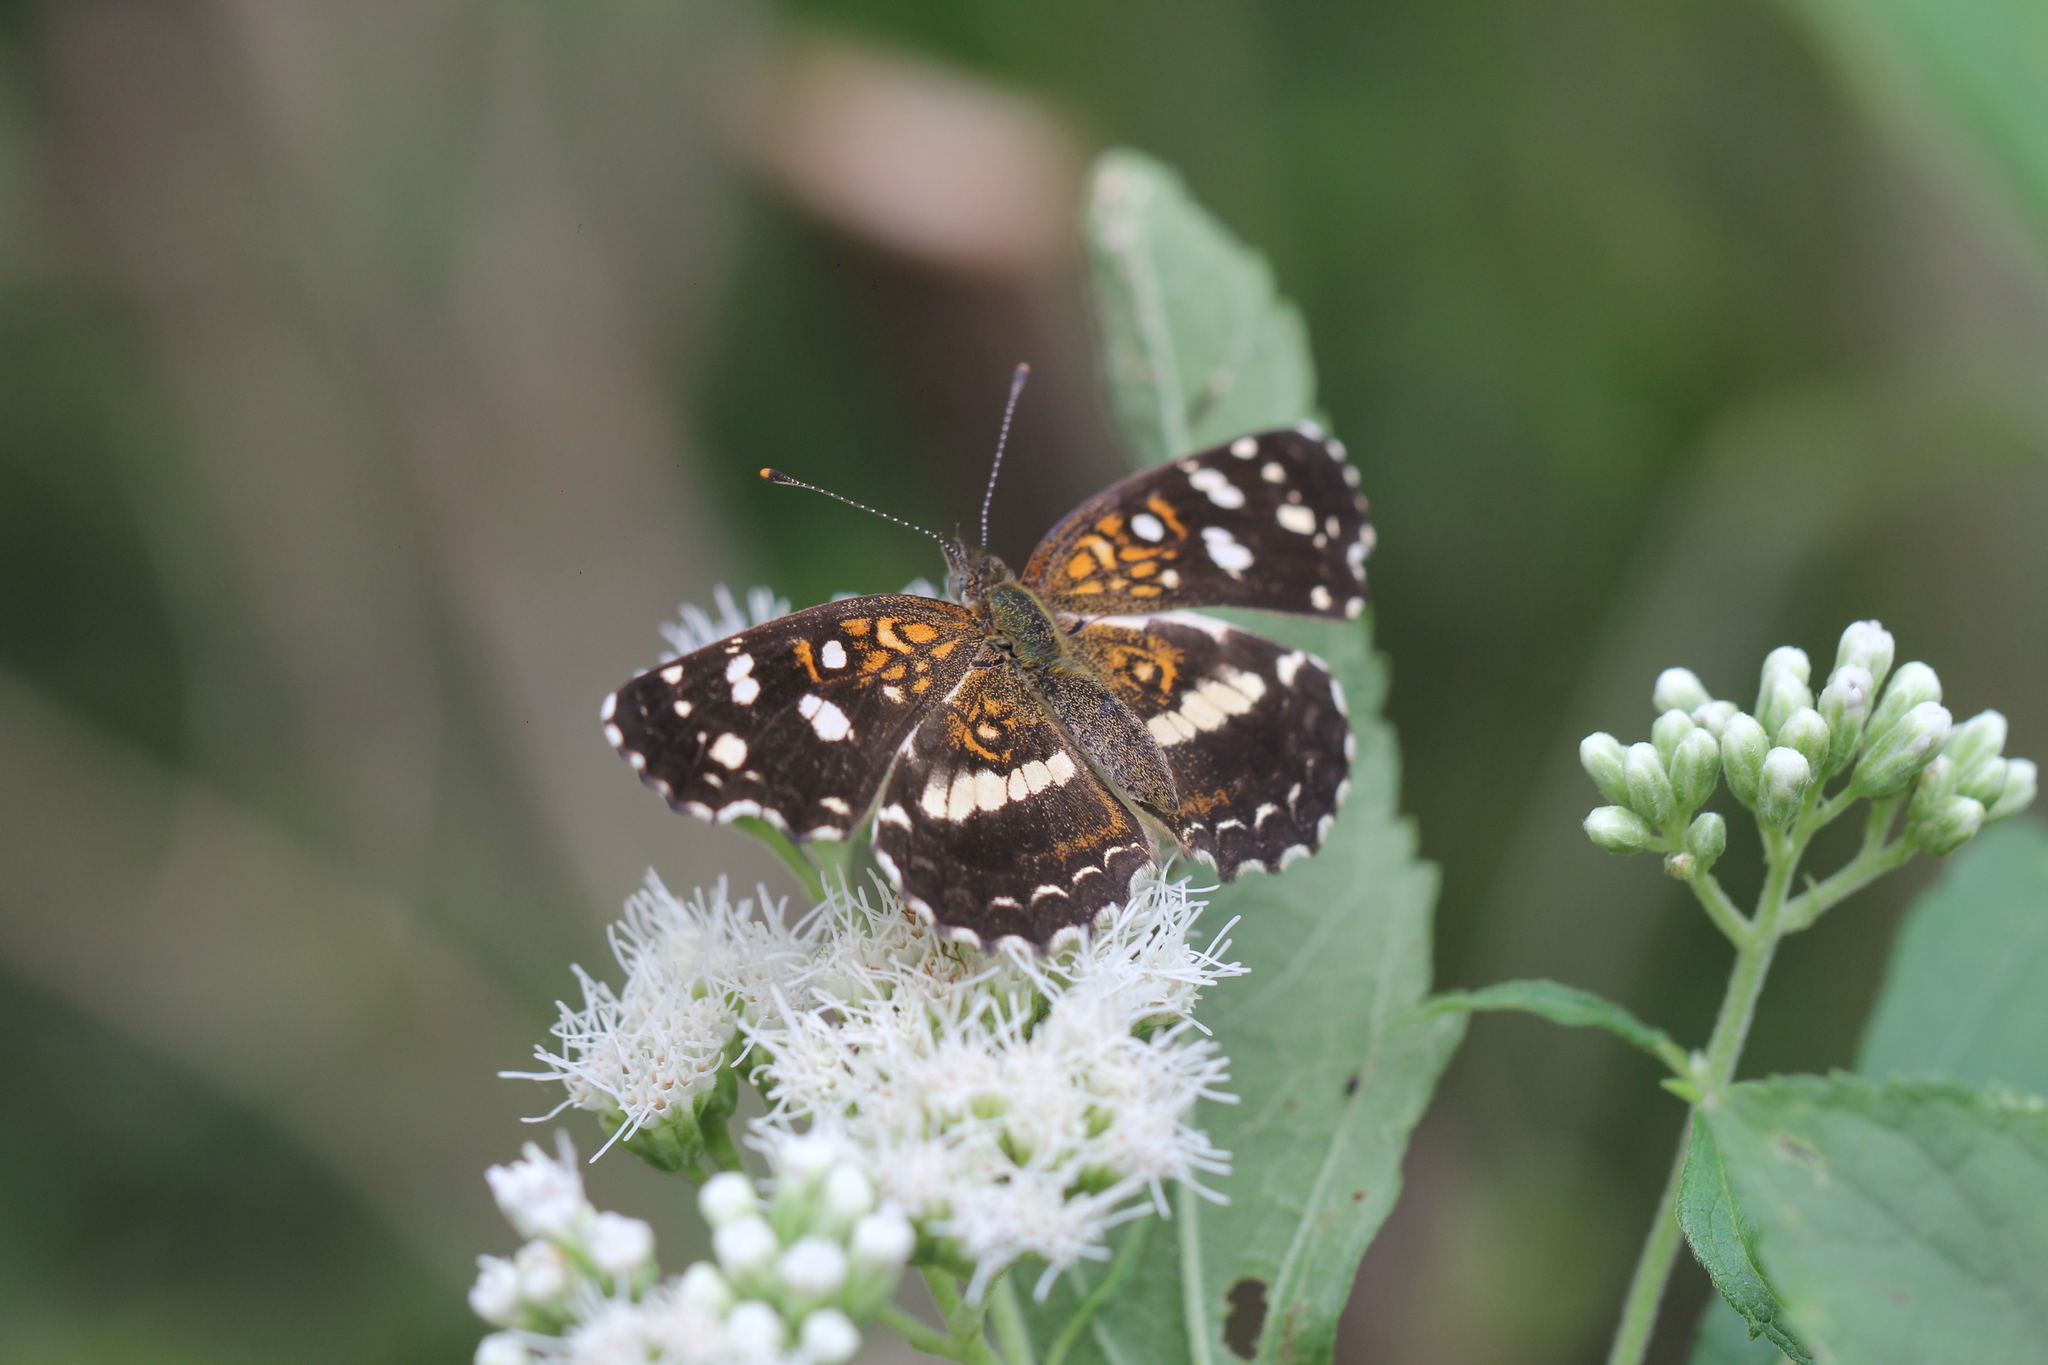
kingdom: Animalia
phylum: Arthropoda
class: Insecta
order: Lepidoptera
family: Nymphalidae
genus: Ortilia
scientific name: Ortilia ithra
